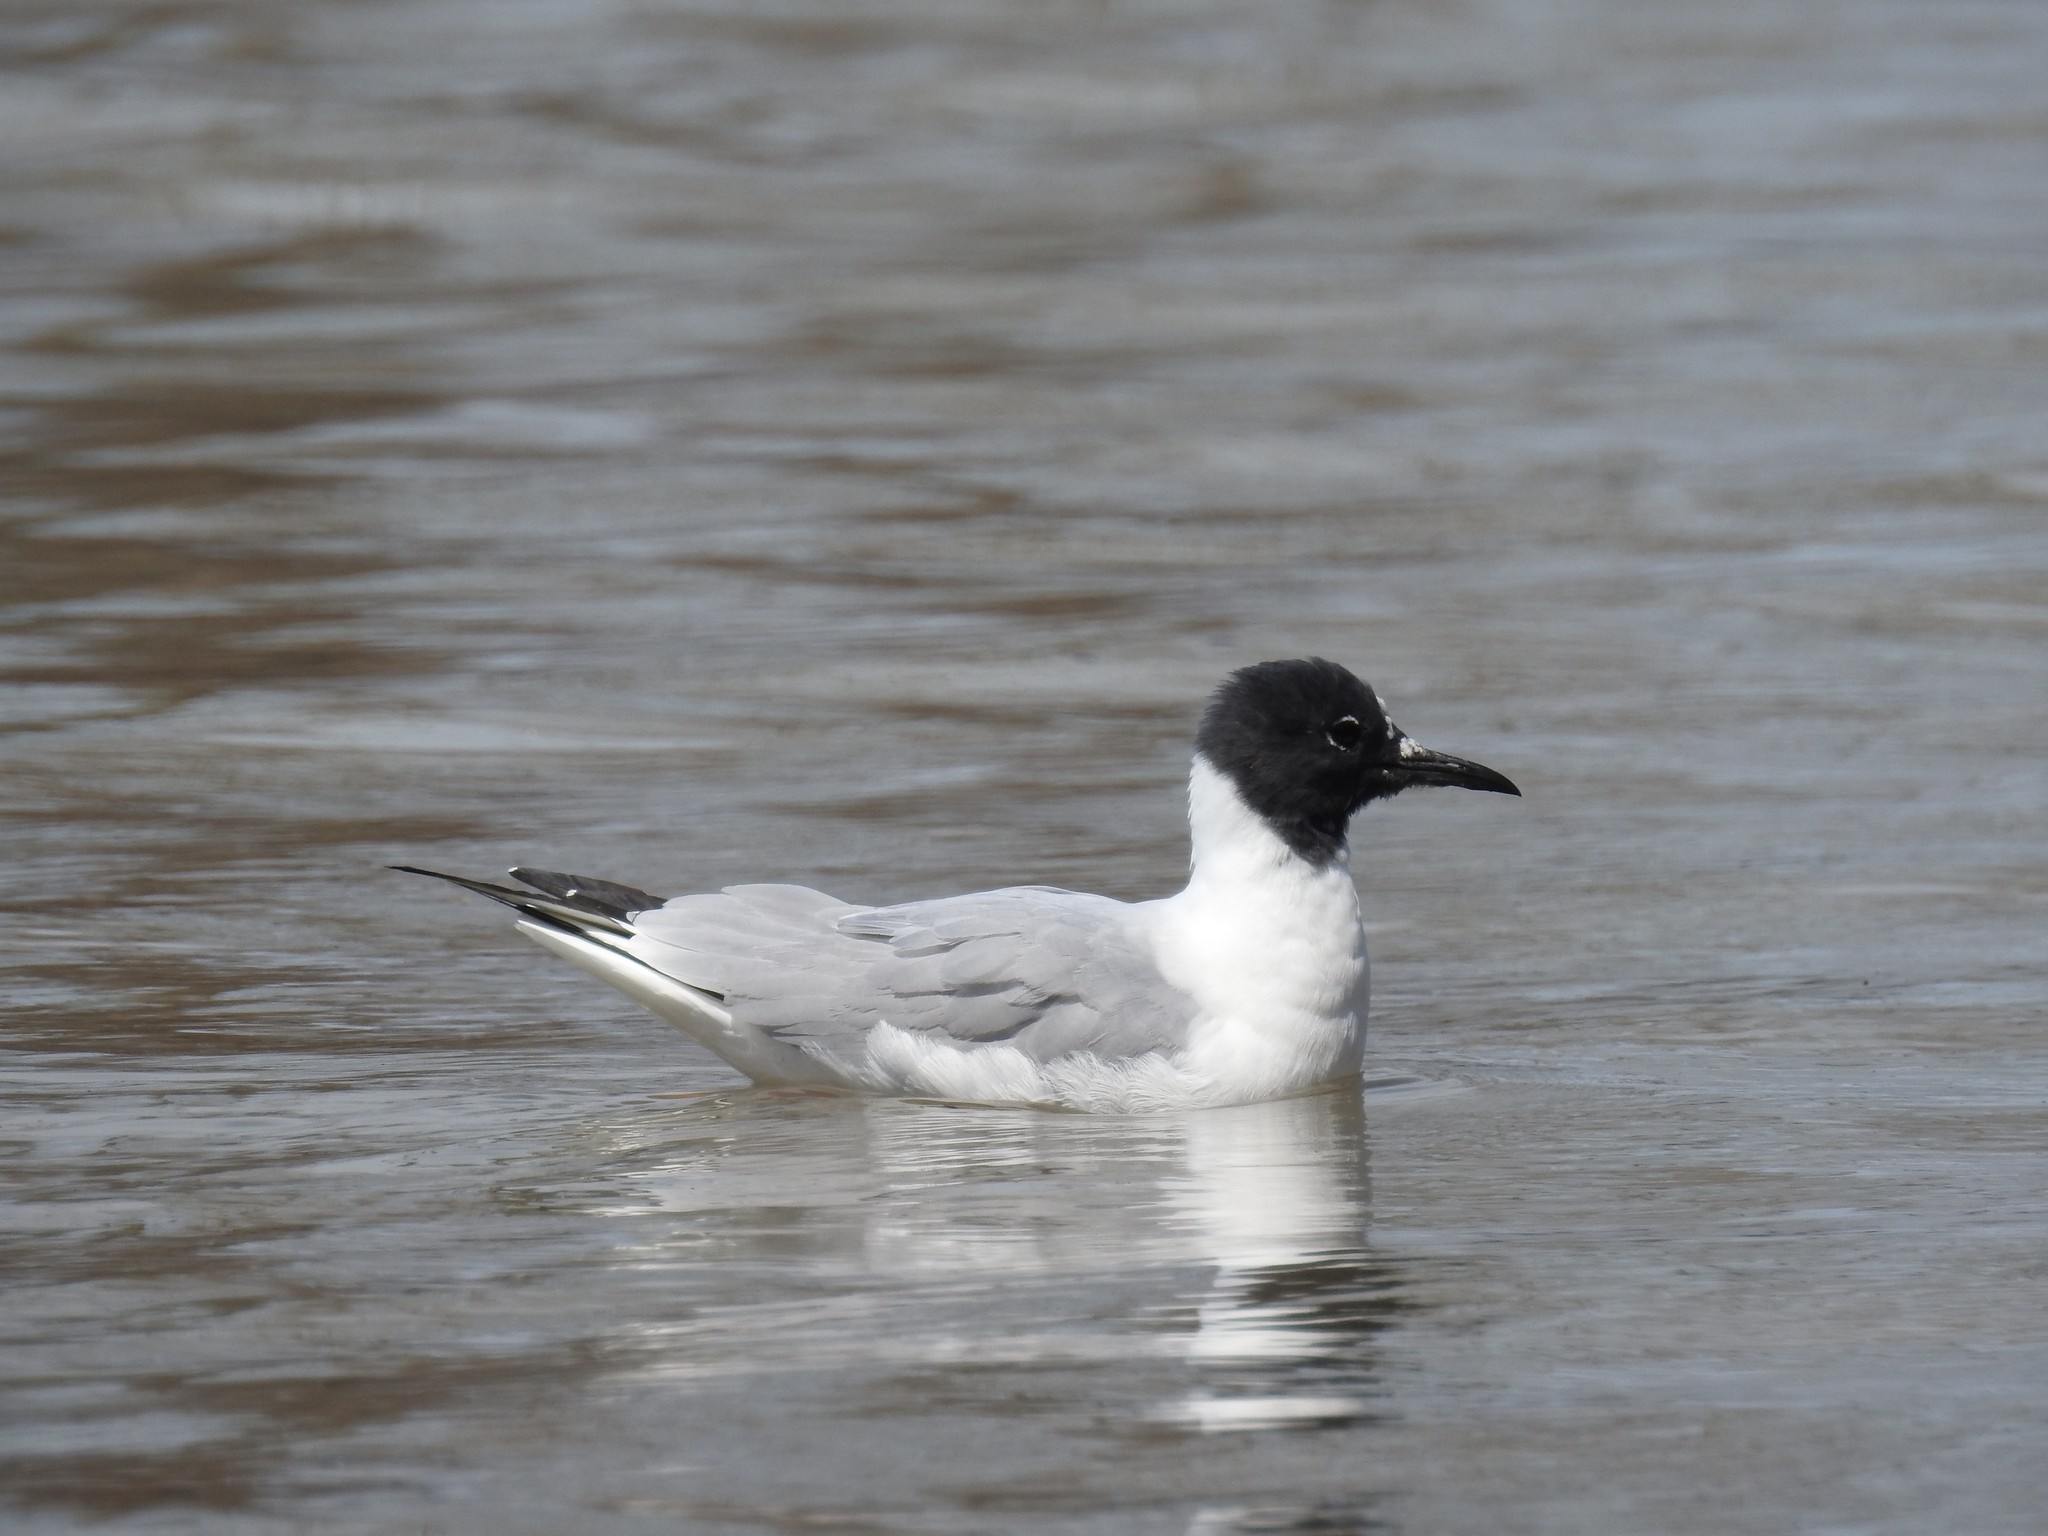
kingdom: Animalia
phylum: Chordata
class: Aves
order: Charadriiformes
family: Laridae
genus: Chroicocephalus
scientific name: Chroicocephalus philadelphia
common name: Bonaparte's gull
